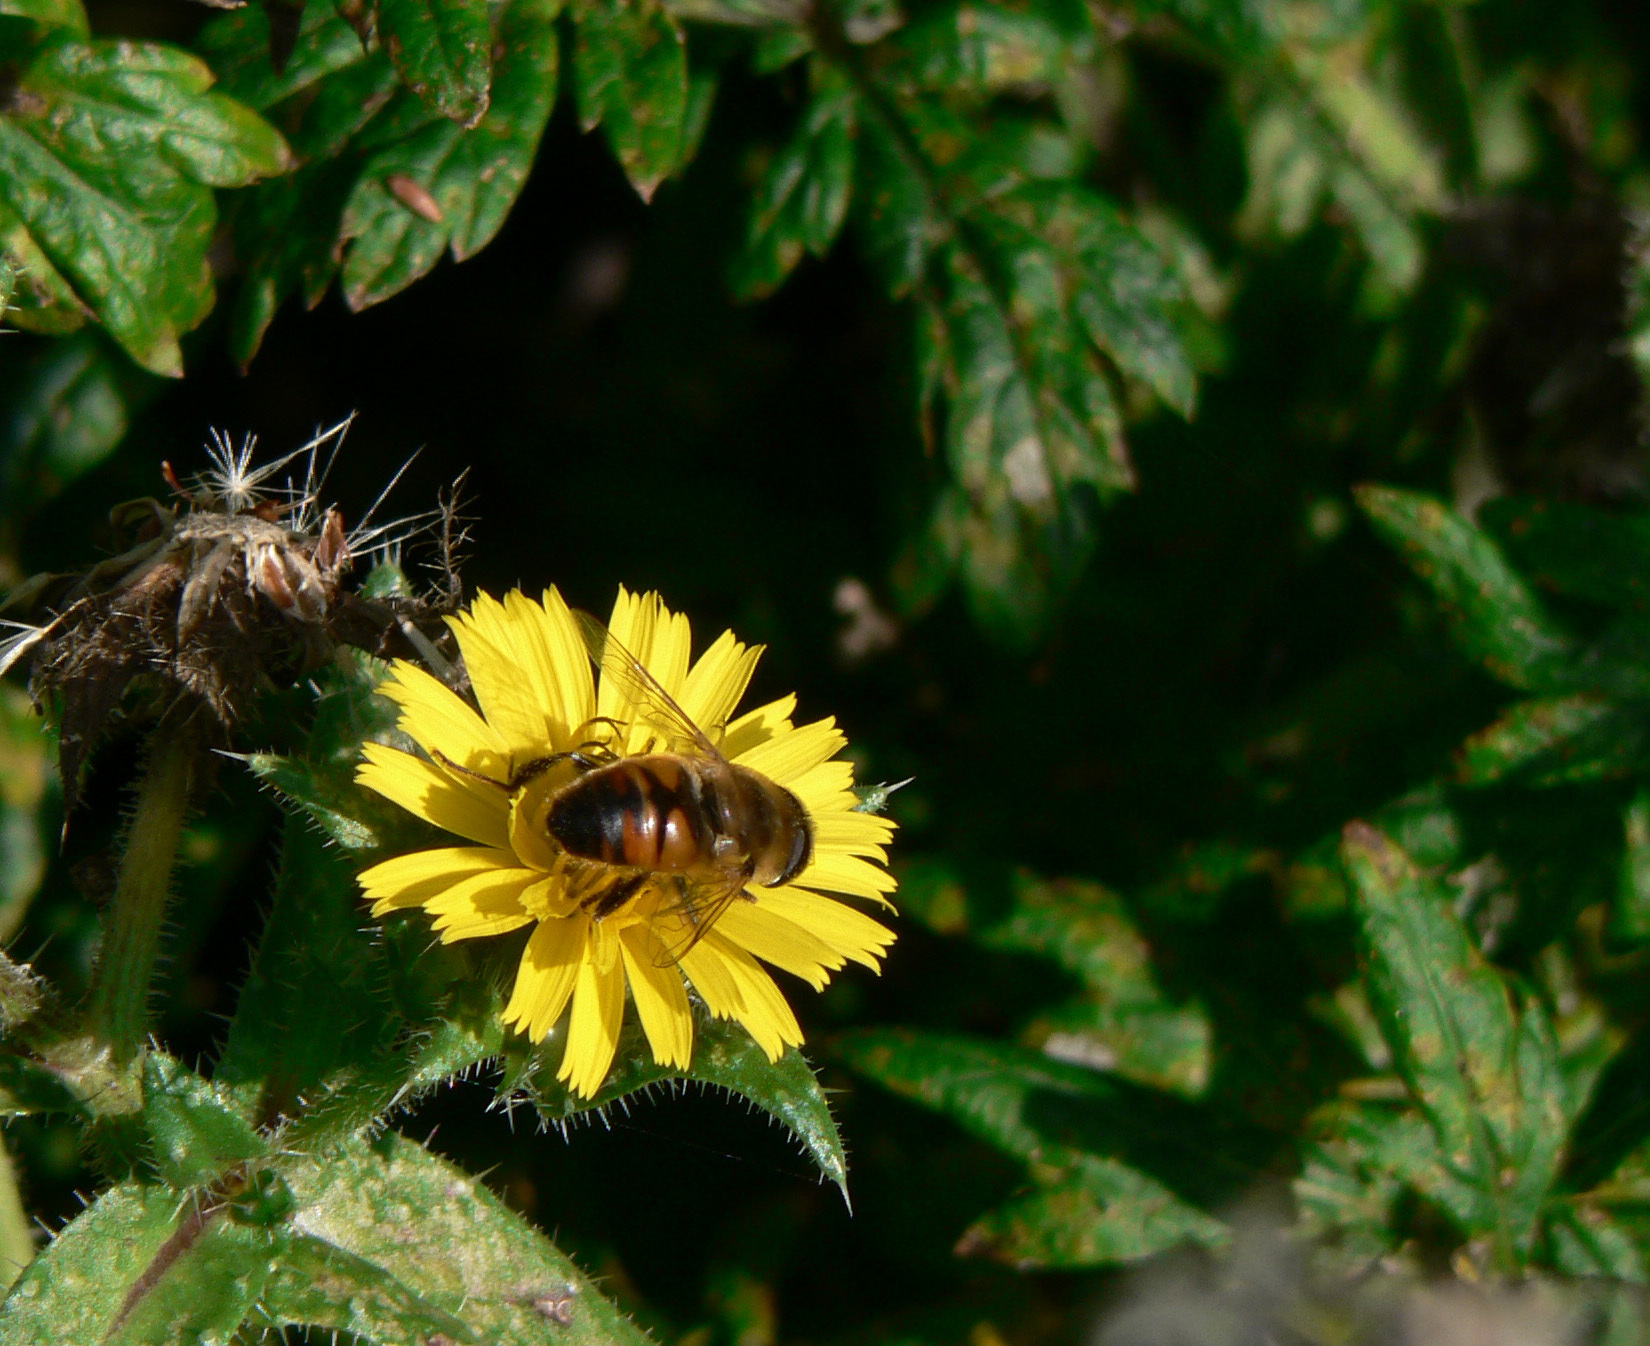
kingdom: Animalia
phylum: Arthropoda
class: Insecta
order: Diptera
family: Syrphidae
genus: Eristalis
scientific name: Eristalis tenax
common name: Drone fly
